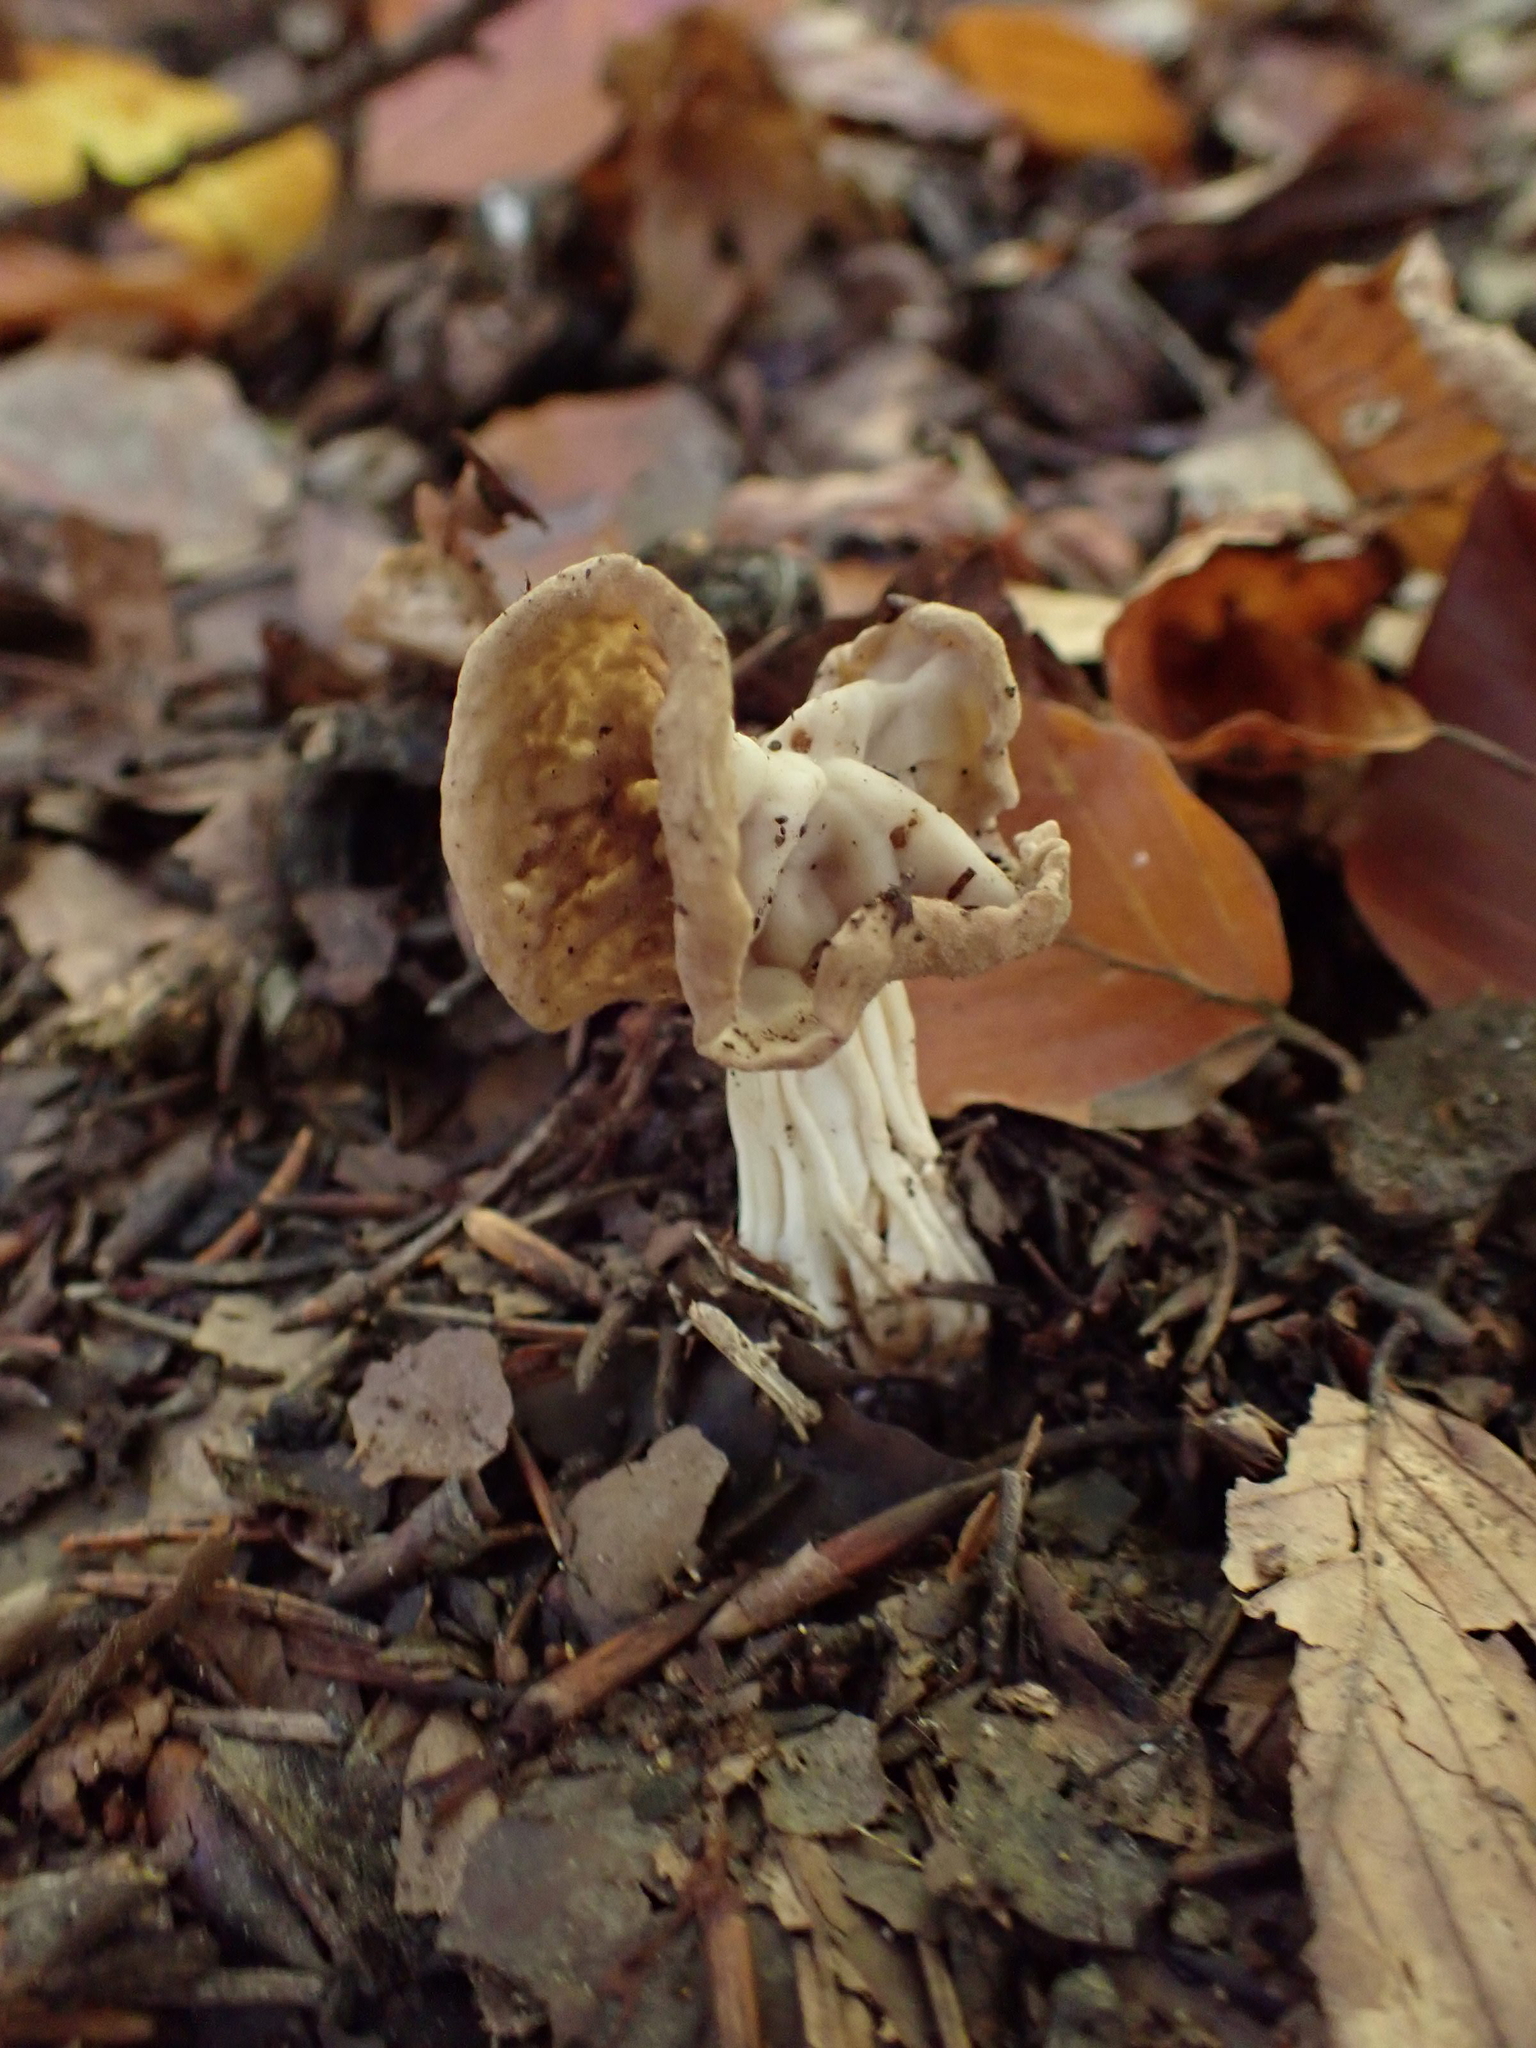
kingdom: Fungi
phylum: Ascomycota
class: Pezizomycetes
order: Pezizales
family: Helvellaceae
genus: Helvella
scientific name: Helvella crispa
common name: White saddle
